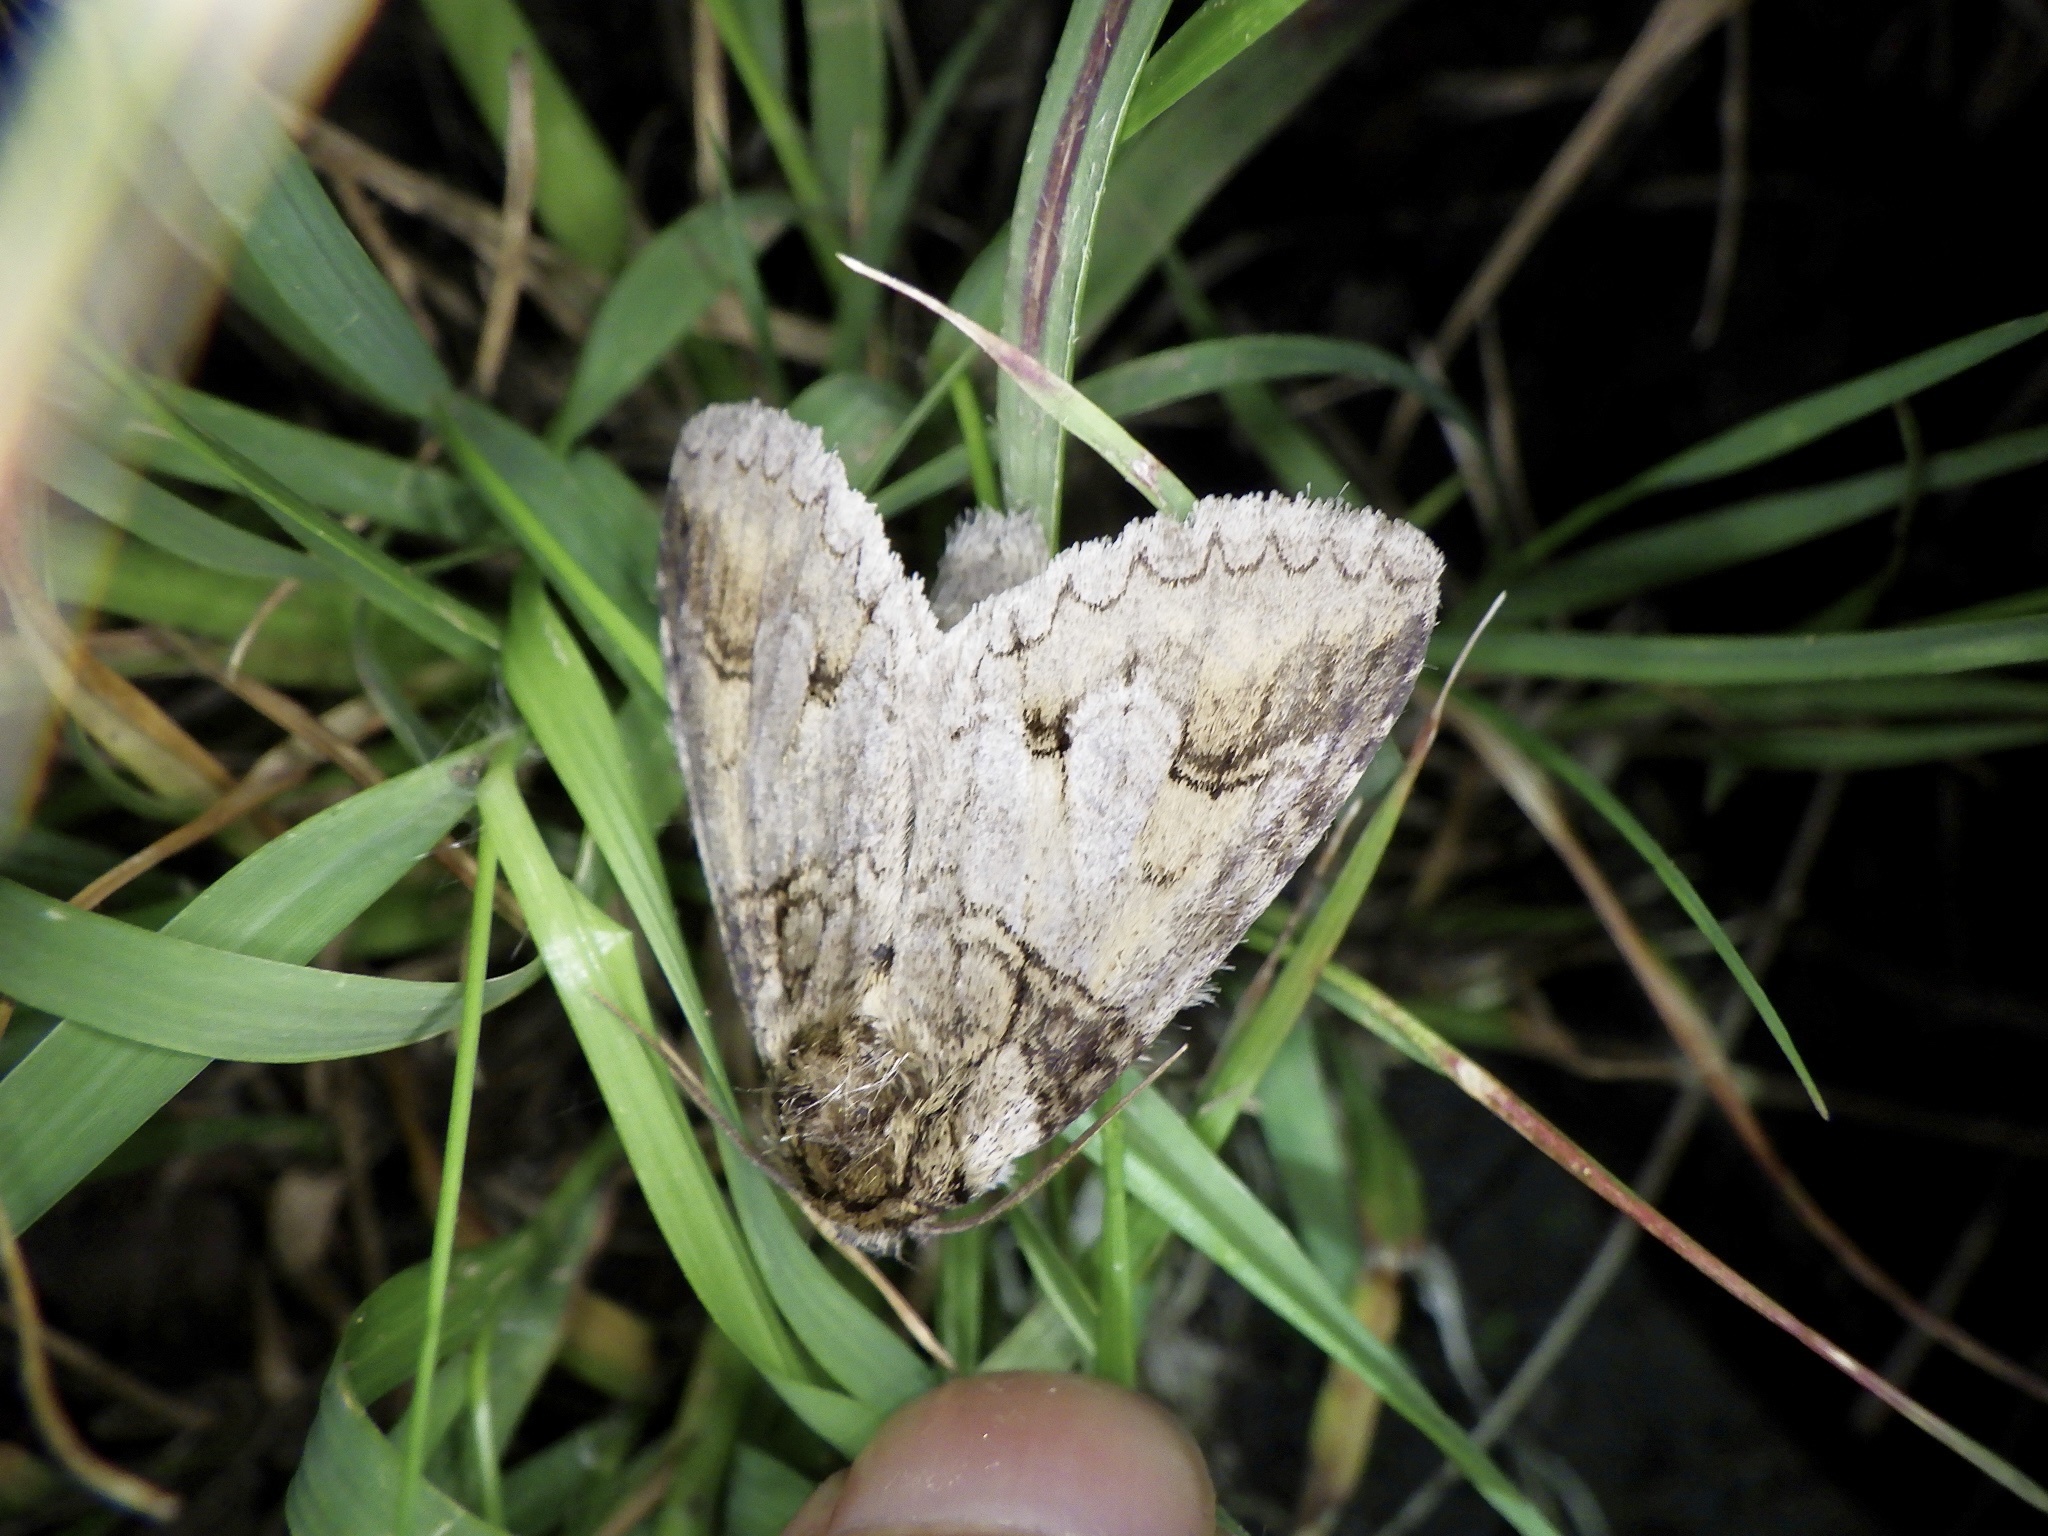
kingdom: Animalia
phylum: Arthropoda
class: Insecta
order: Lepidoptera
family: Notodontidae
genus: Neodrymonia
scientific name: Neodrymonia delia
